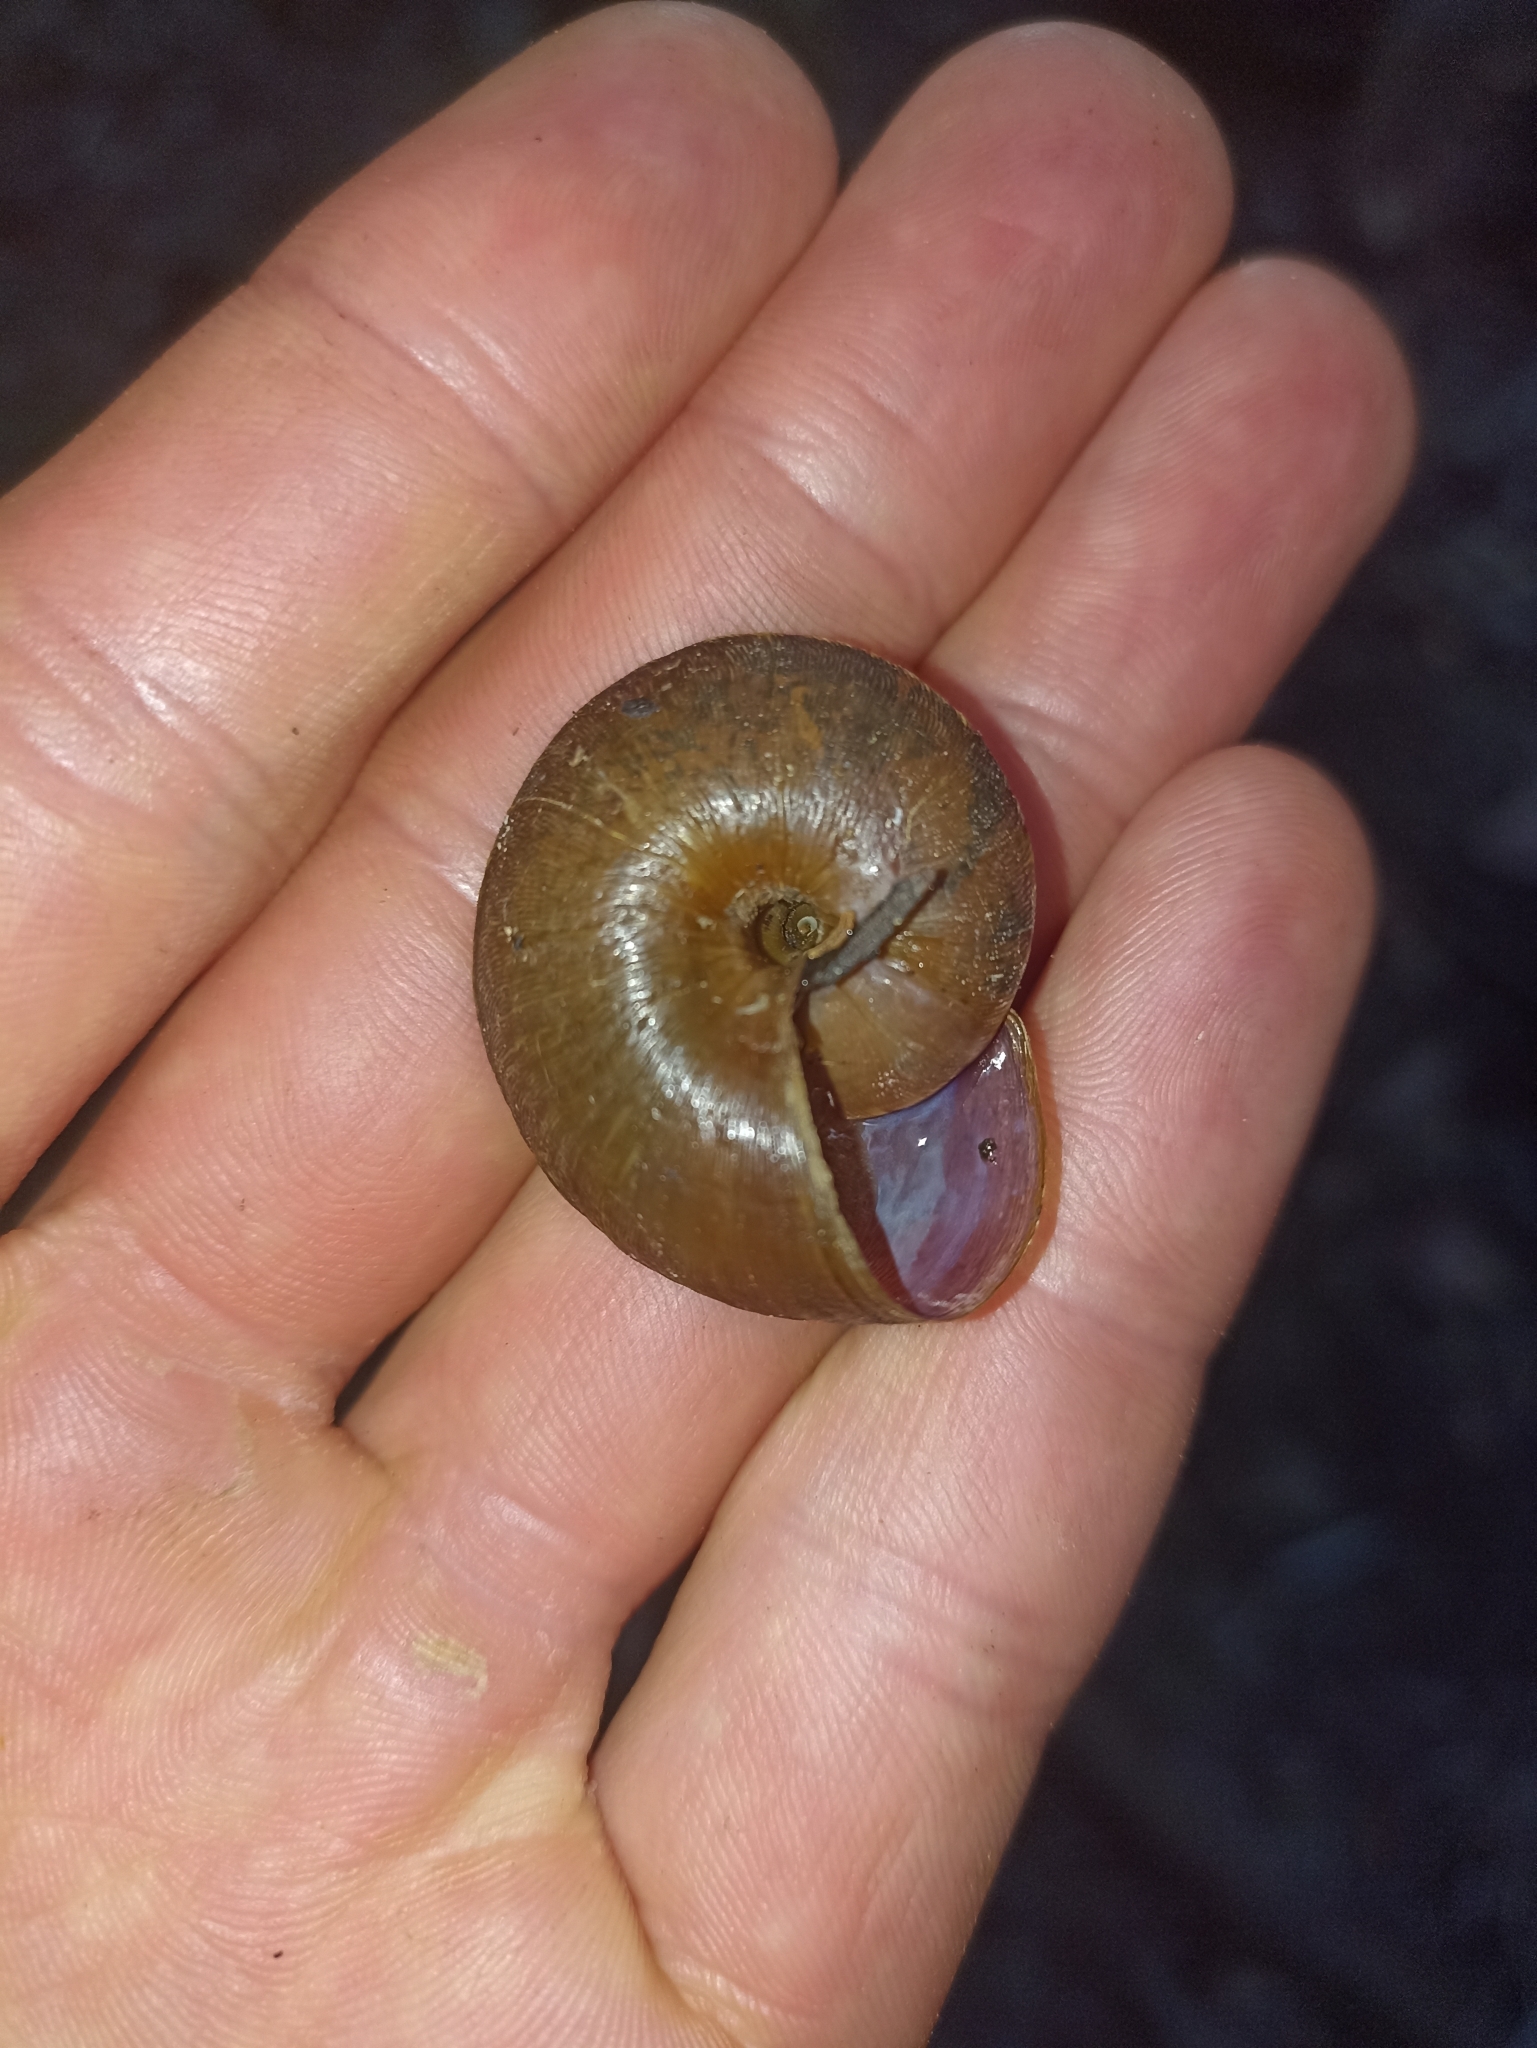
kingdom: Animalia
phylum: Mollusca
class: Gastropoda
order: Stylommatophora
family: Rhytididae
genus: Amborhytida
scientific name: Amborhytida dunniae
